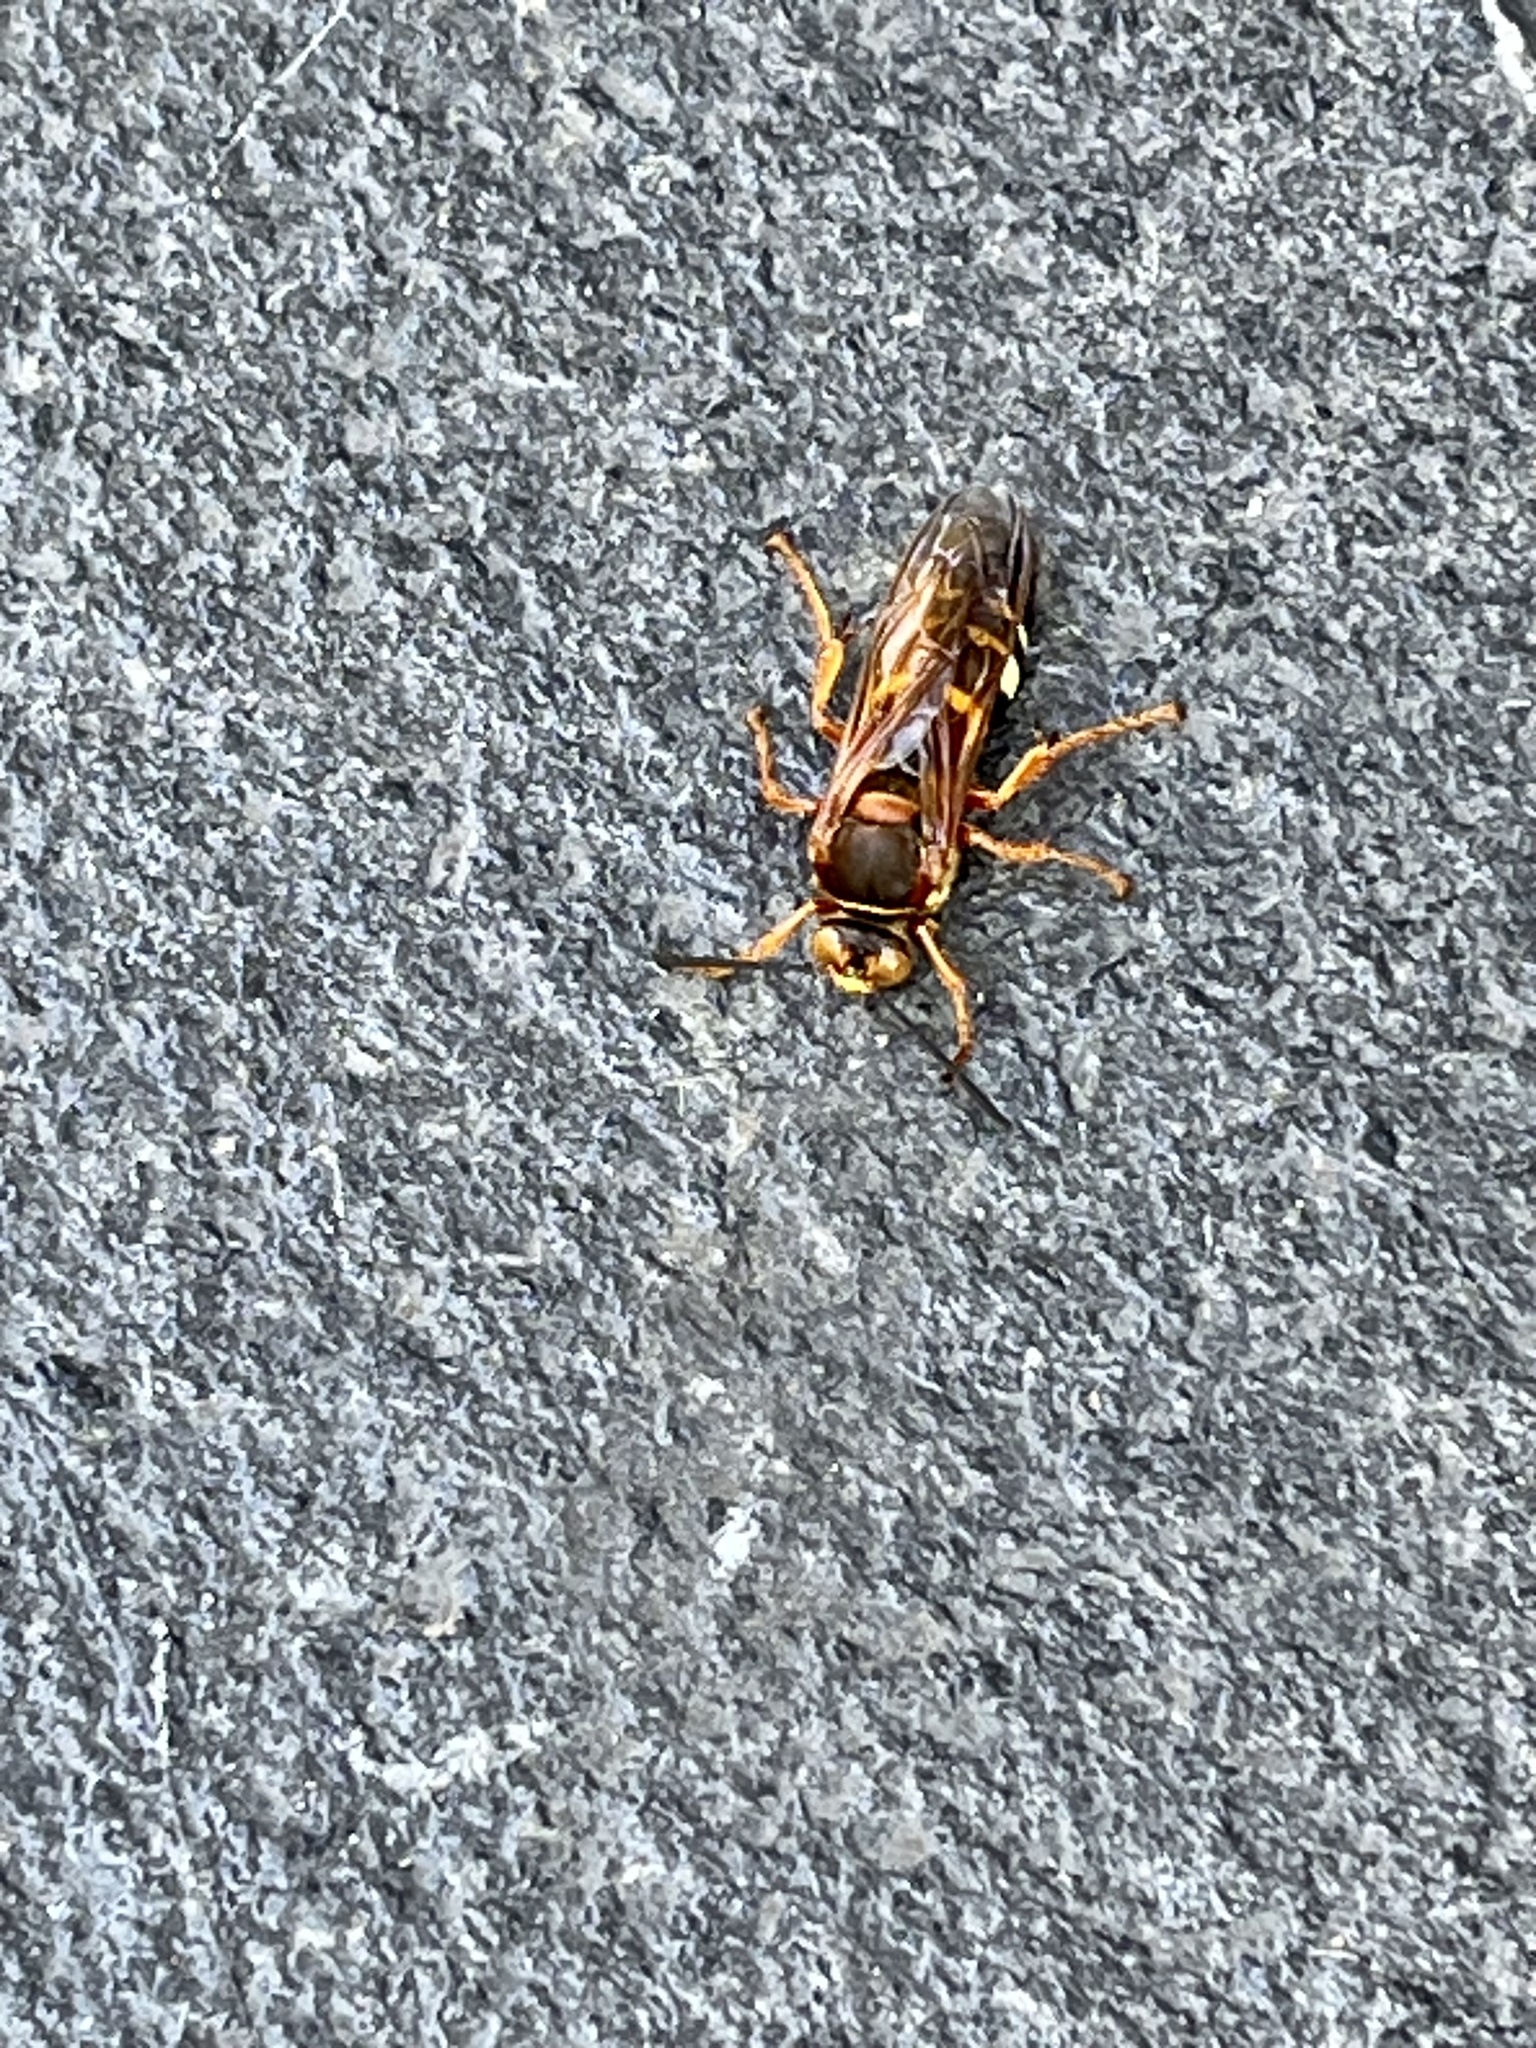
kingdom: Animalia
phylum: Arthropoda
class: Insecta
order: Hymenoptera
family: Crabronidae
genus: Sphecius
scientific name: Sphecius speciosus
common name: Cicada killer
